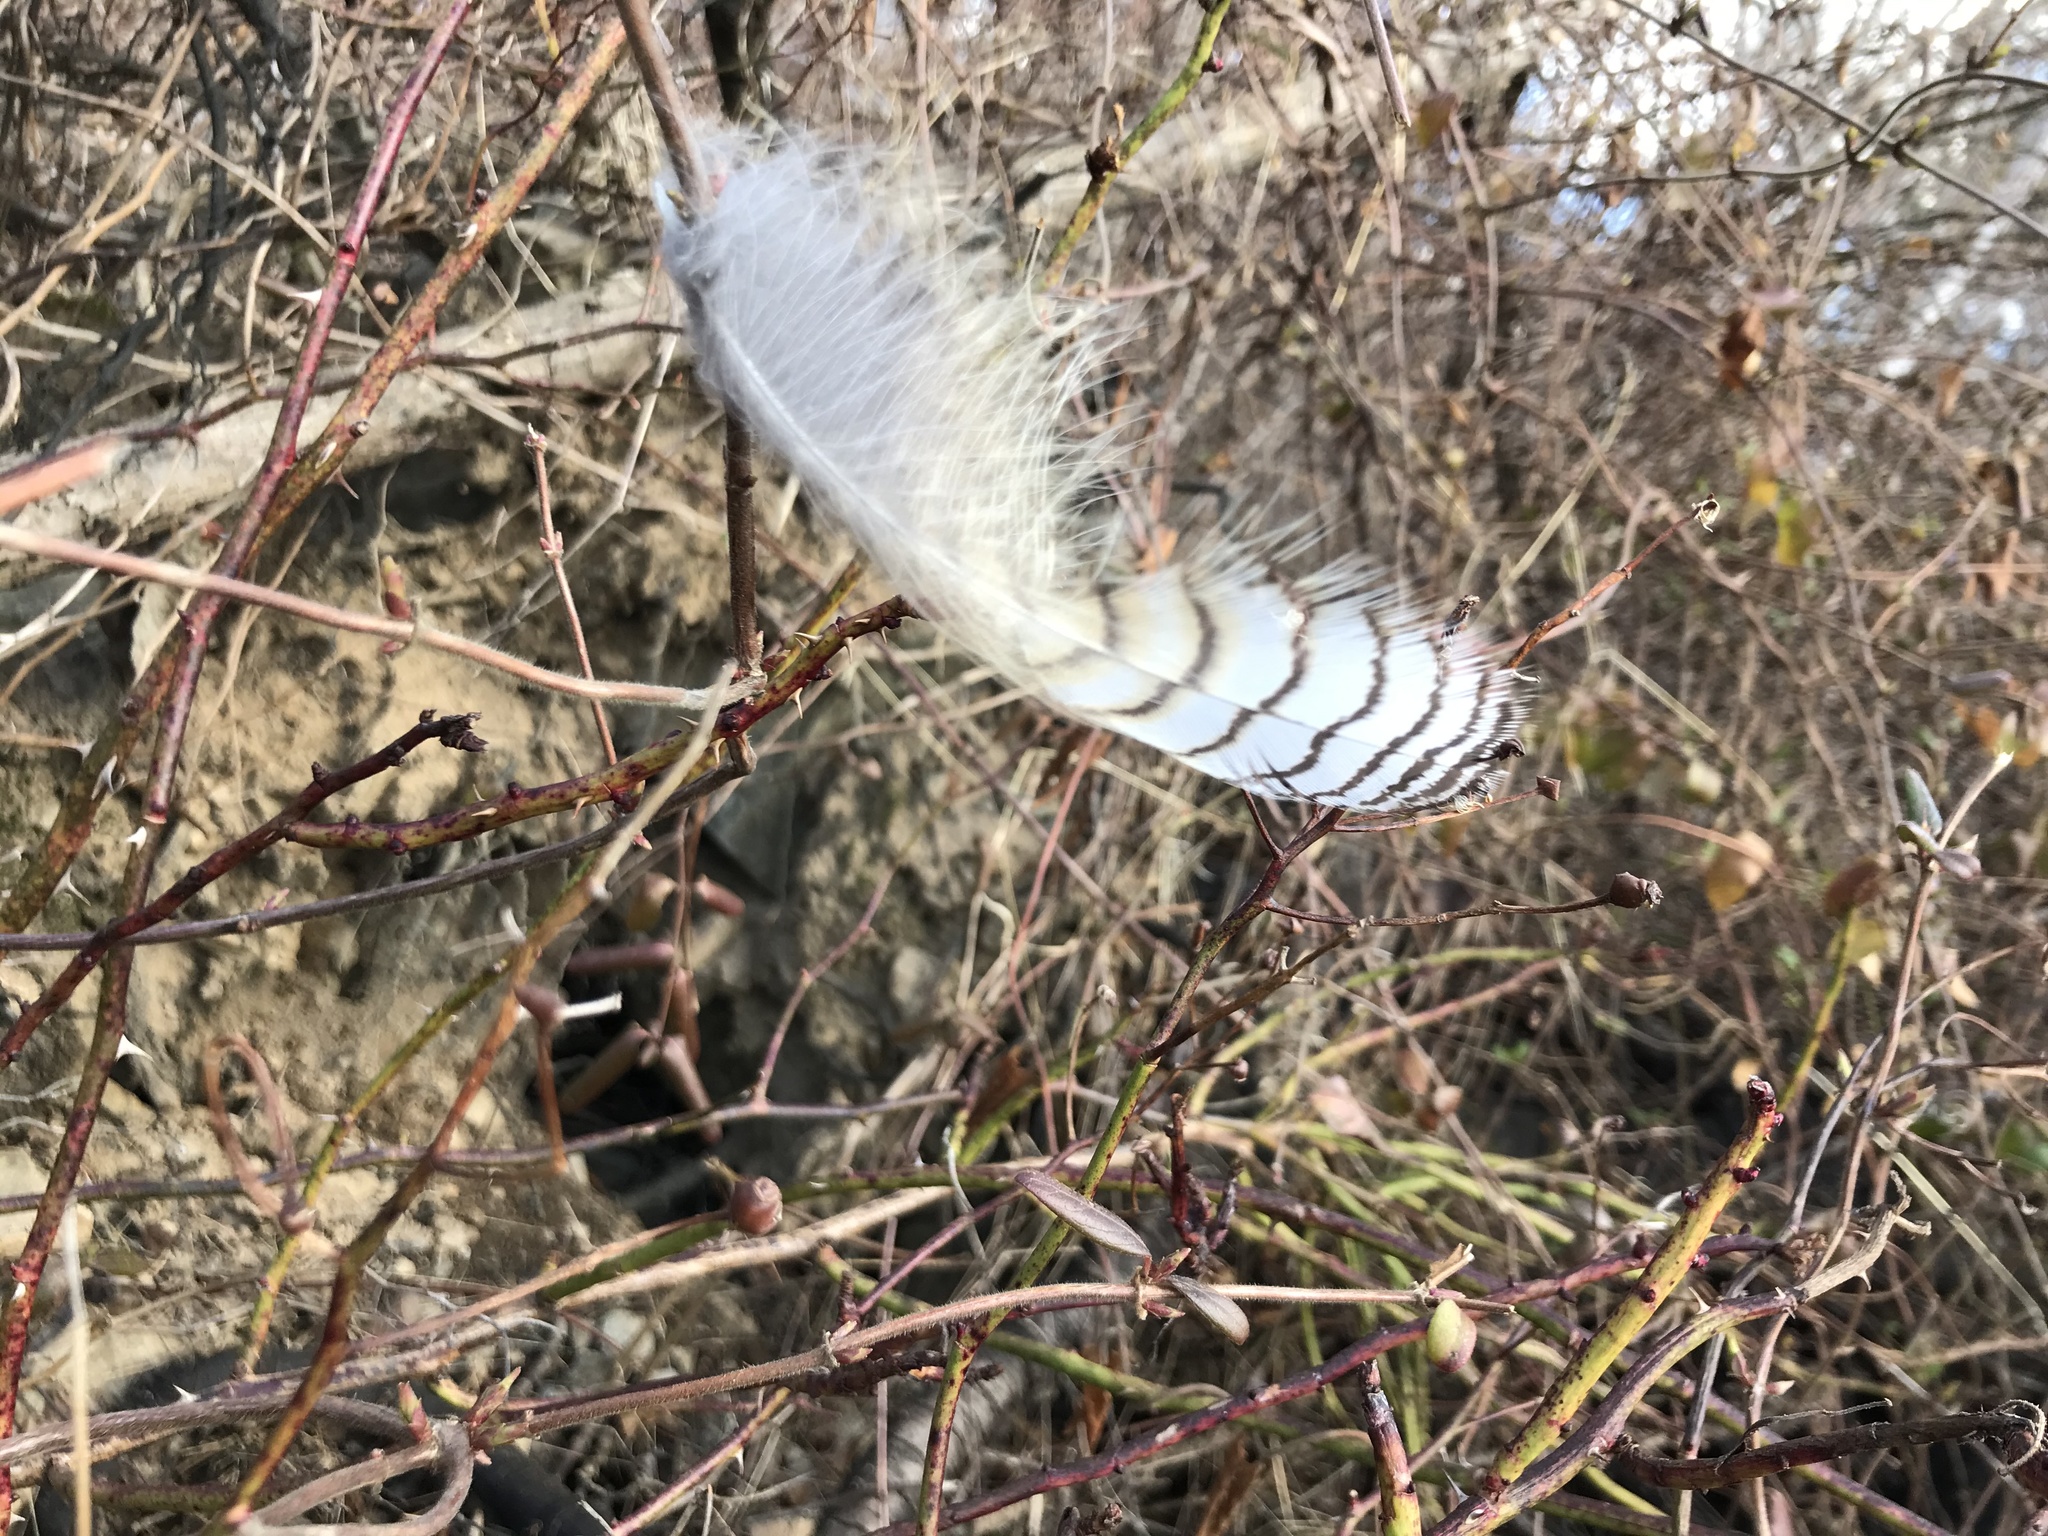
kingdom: Animalia
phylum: Chordata
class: Aves
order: Strigiformes
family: Strigidae
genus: Bubo
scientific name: Bubo virginianus
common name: Great horned owl
